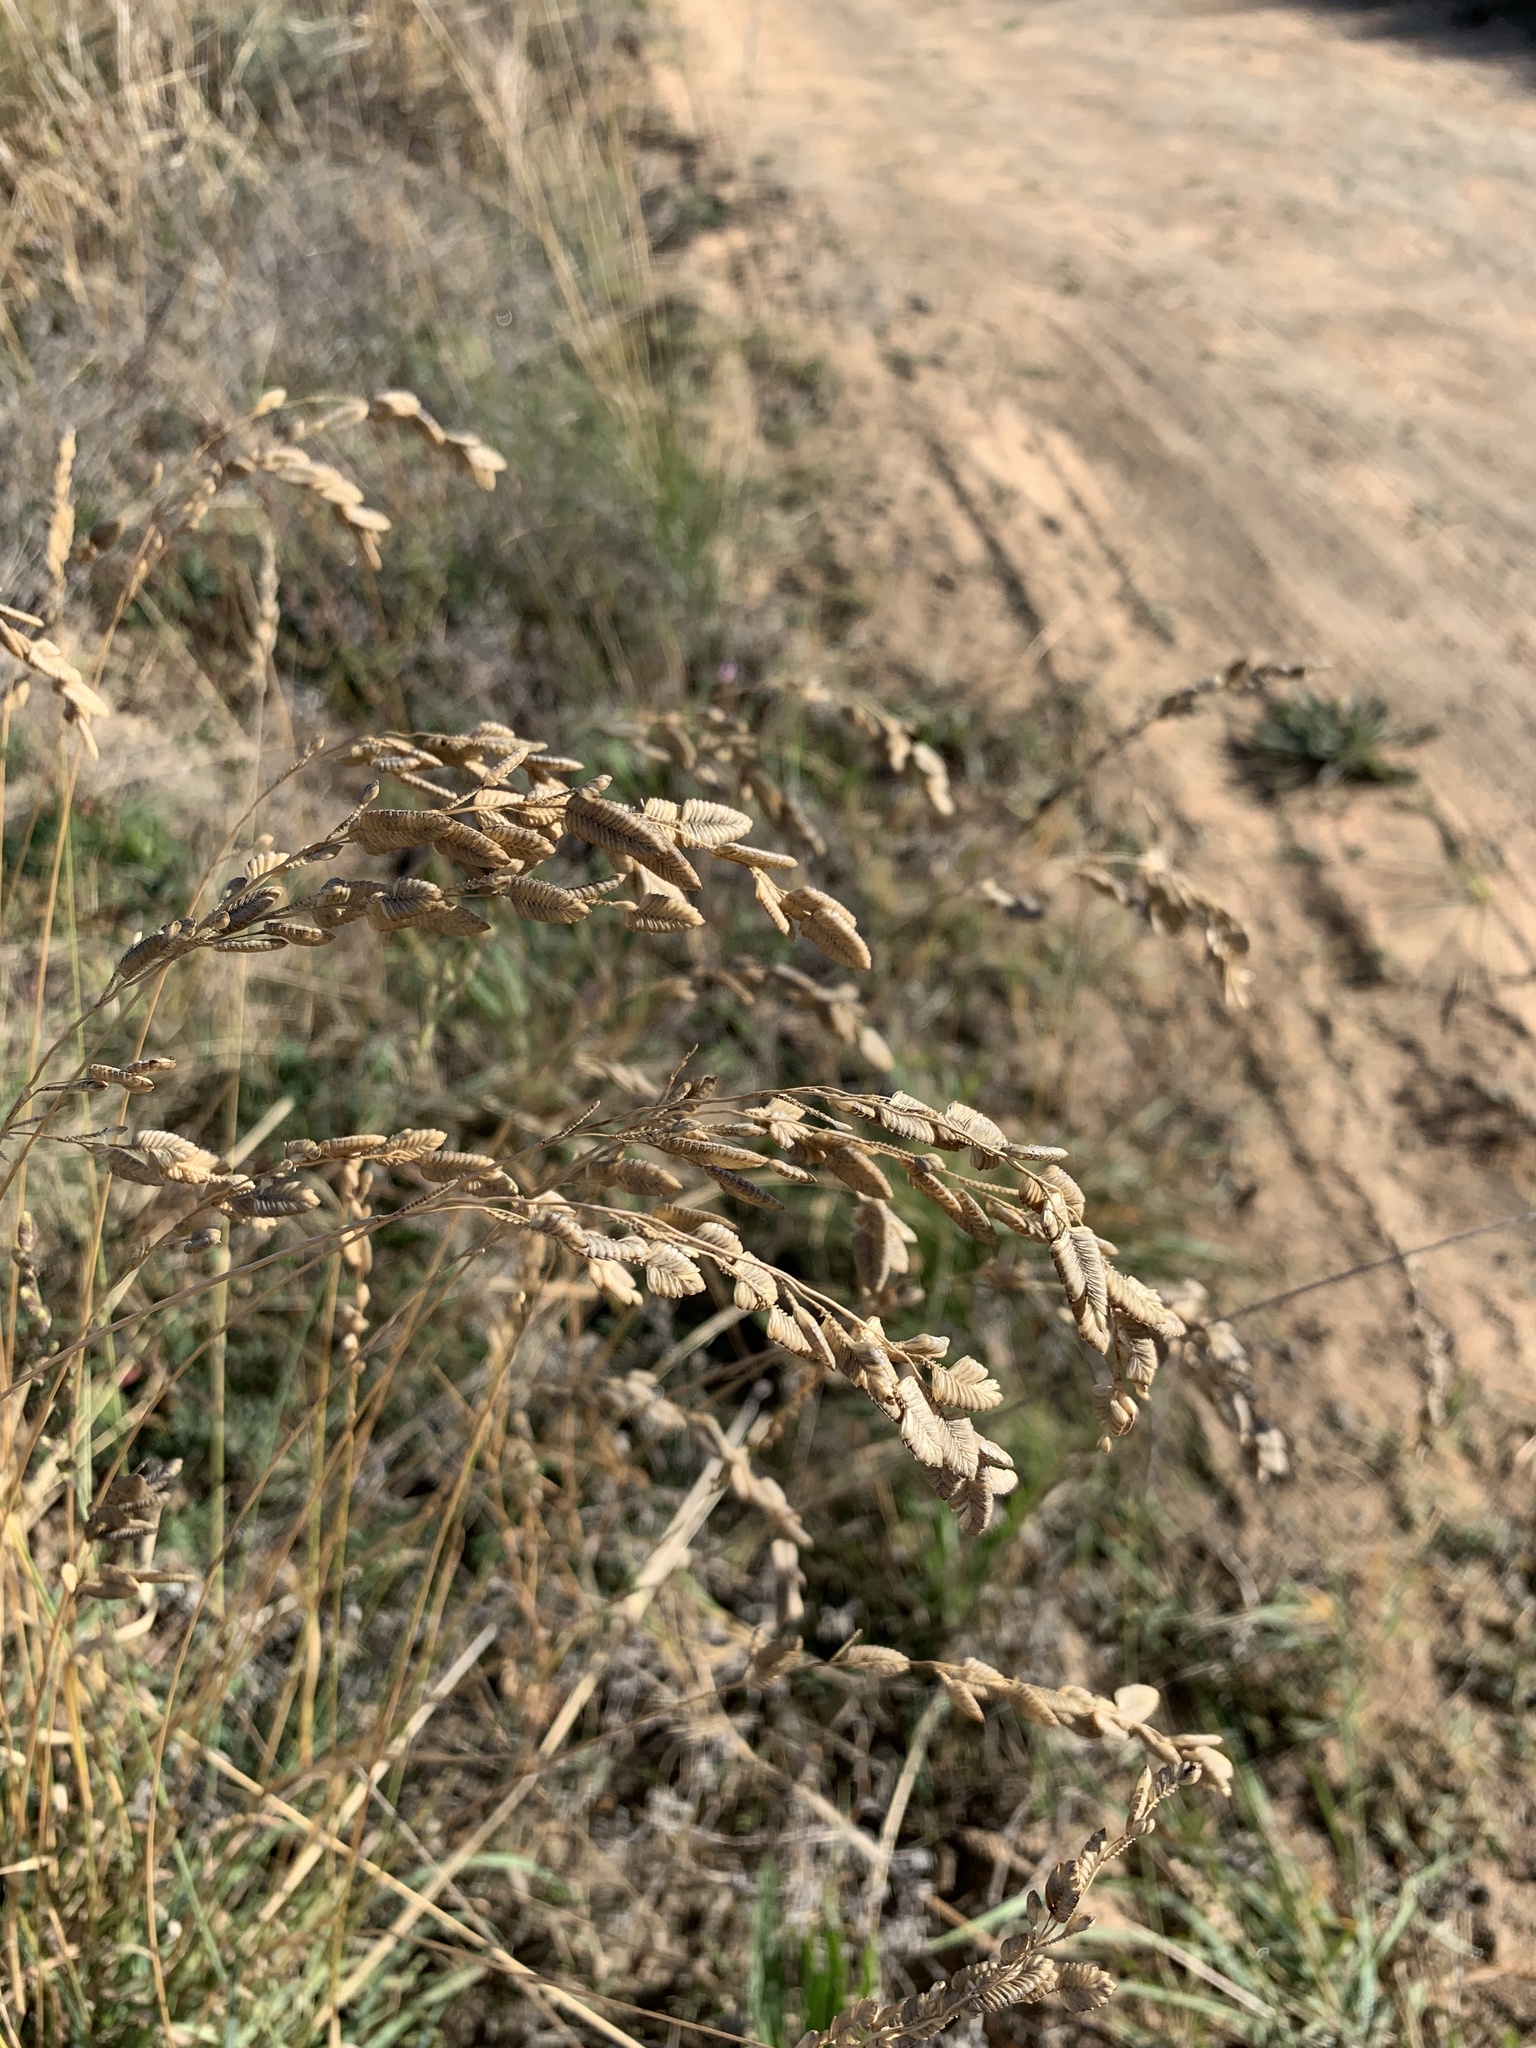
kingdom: Plantae
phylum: Tracheophyta
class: Liliopsida
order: Poales
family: Poaceae
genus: Eragrostis
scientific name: Eragrostis capensis
